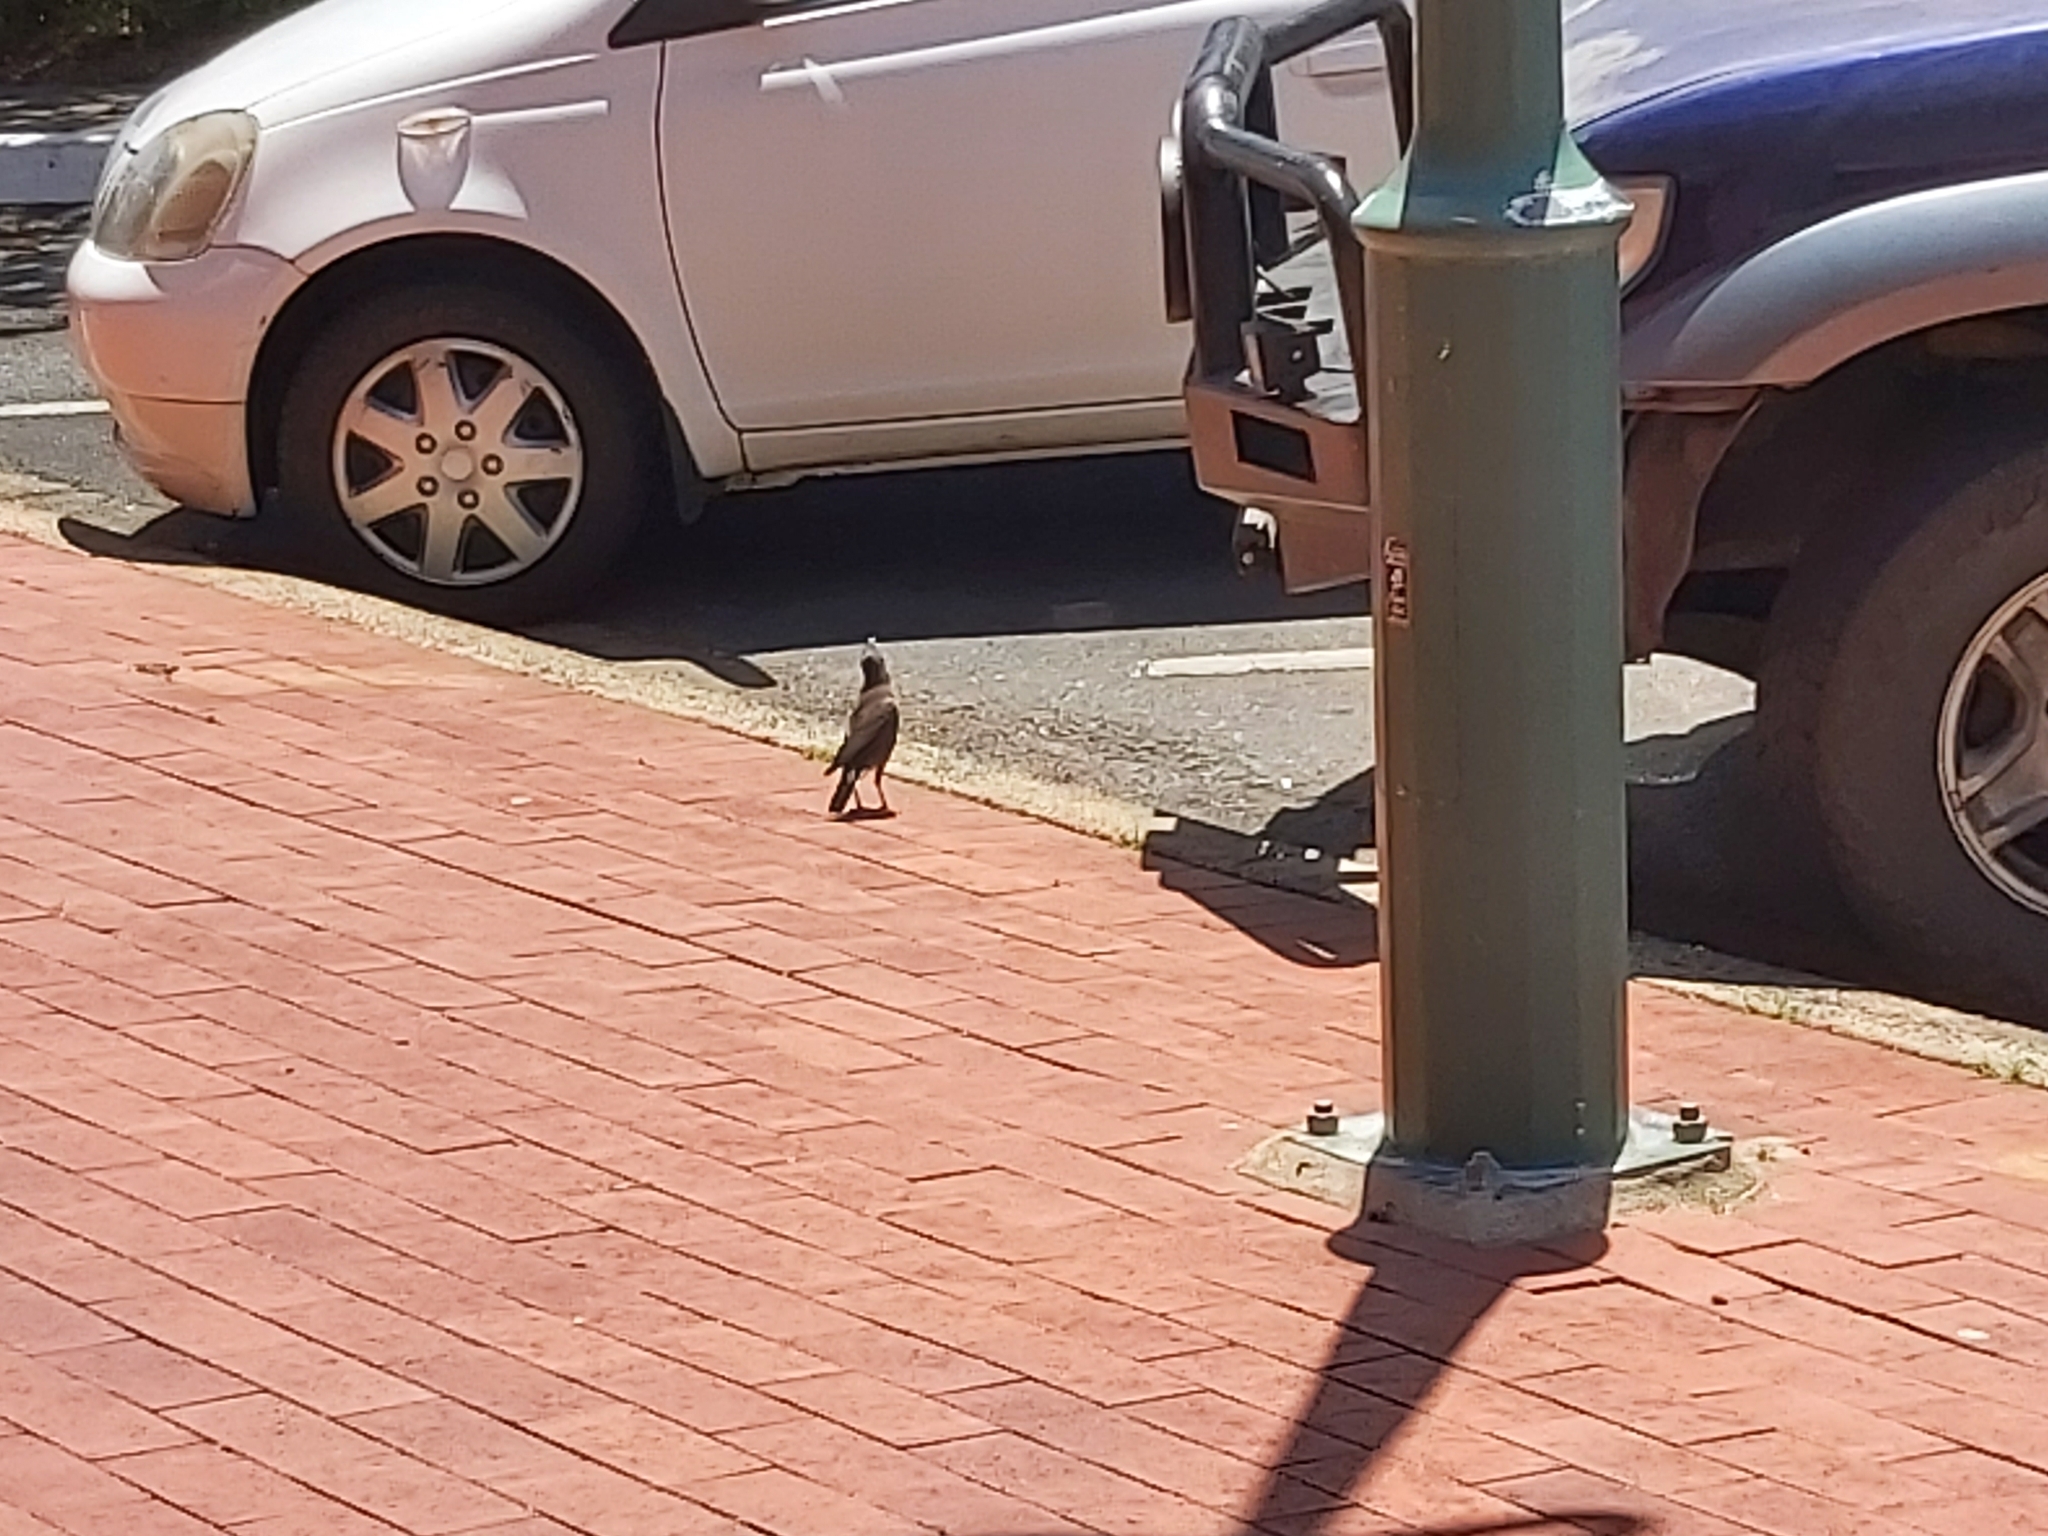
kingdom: Animalia
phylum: Chordata
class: Aves
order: Passeriformes
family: Sturnidae
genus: Acridotheres
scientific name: Acridotheres tristis
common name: Common myna
